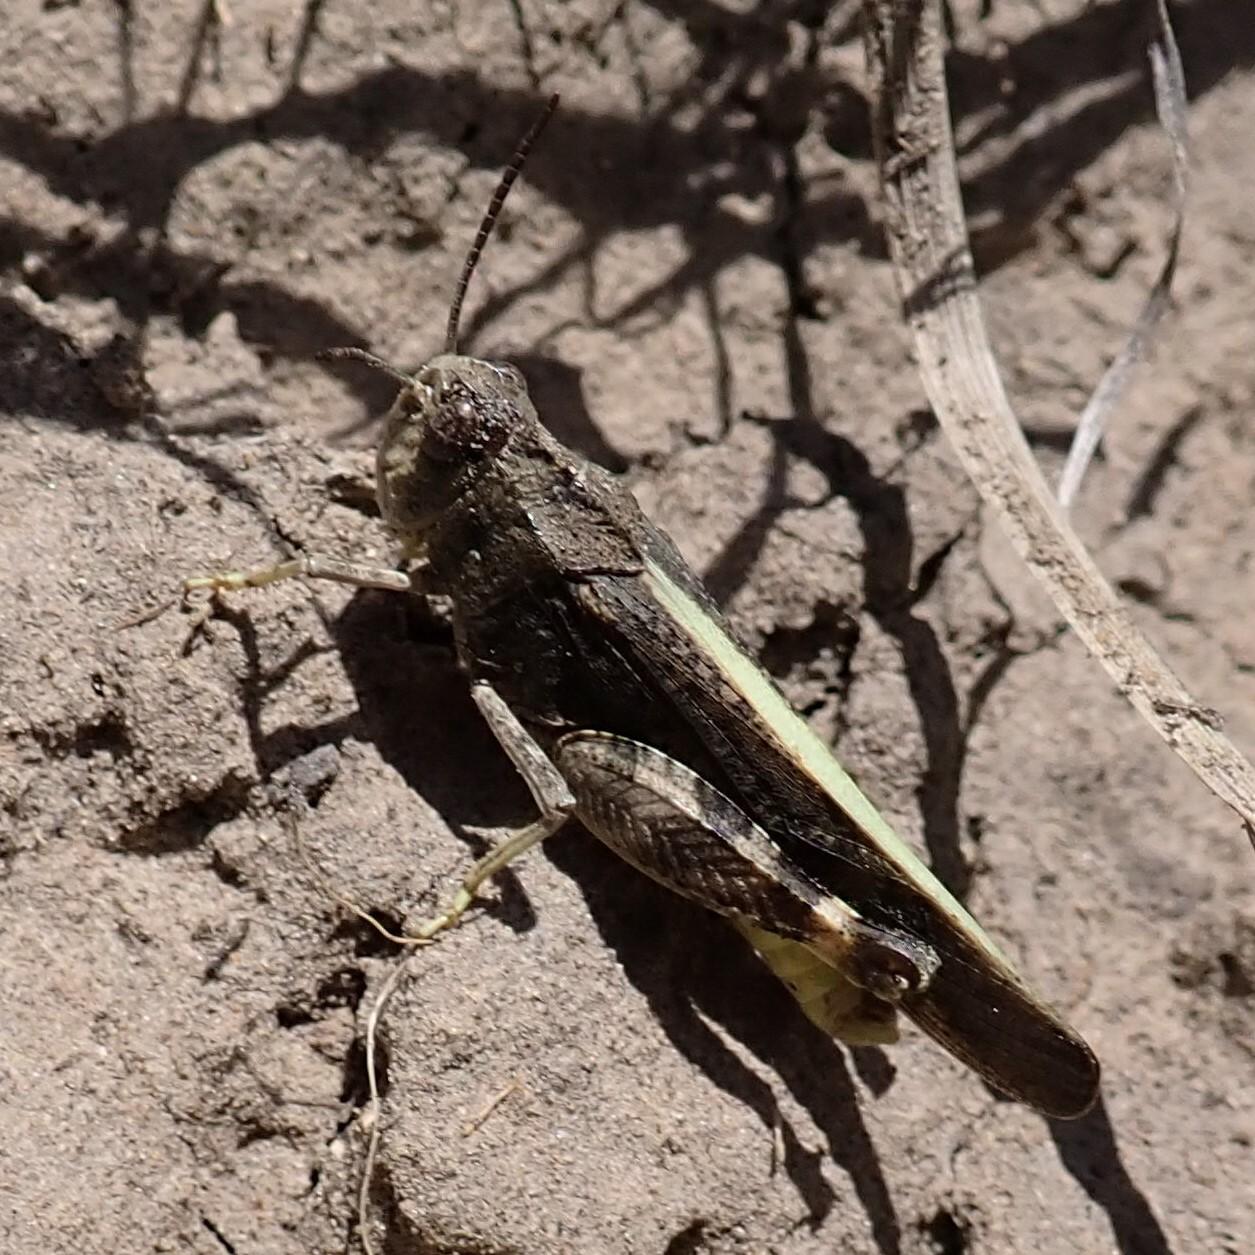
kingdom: Animalia
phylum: Arthropoda
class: Insecta
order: Orthoptera
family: Acrididae
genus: Arphia
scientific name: Arphia conspersa
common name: Speckle-winged rangeland grasshopper
